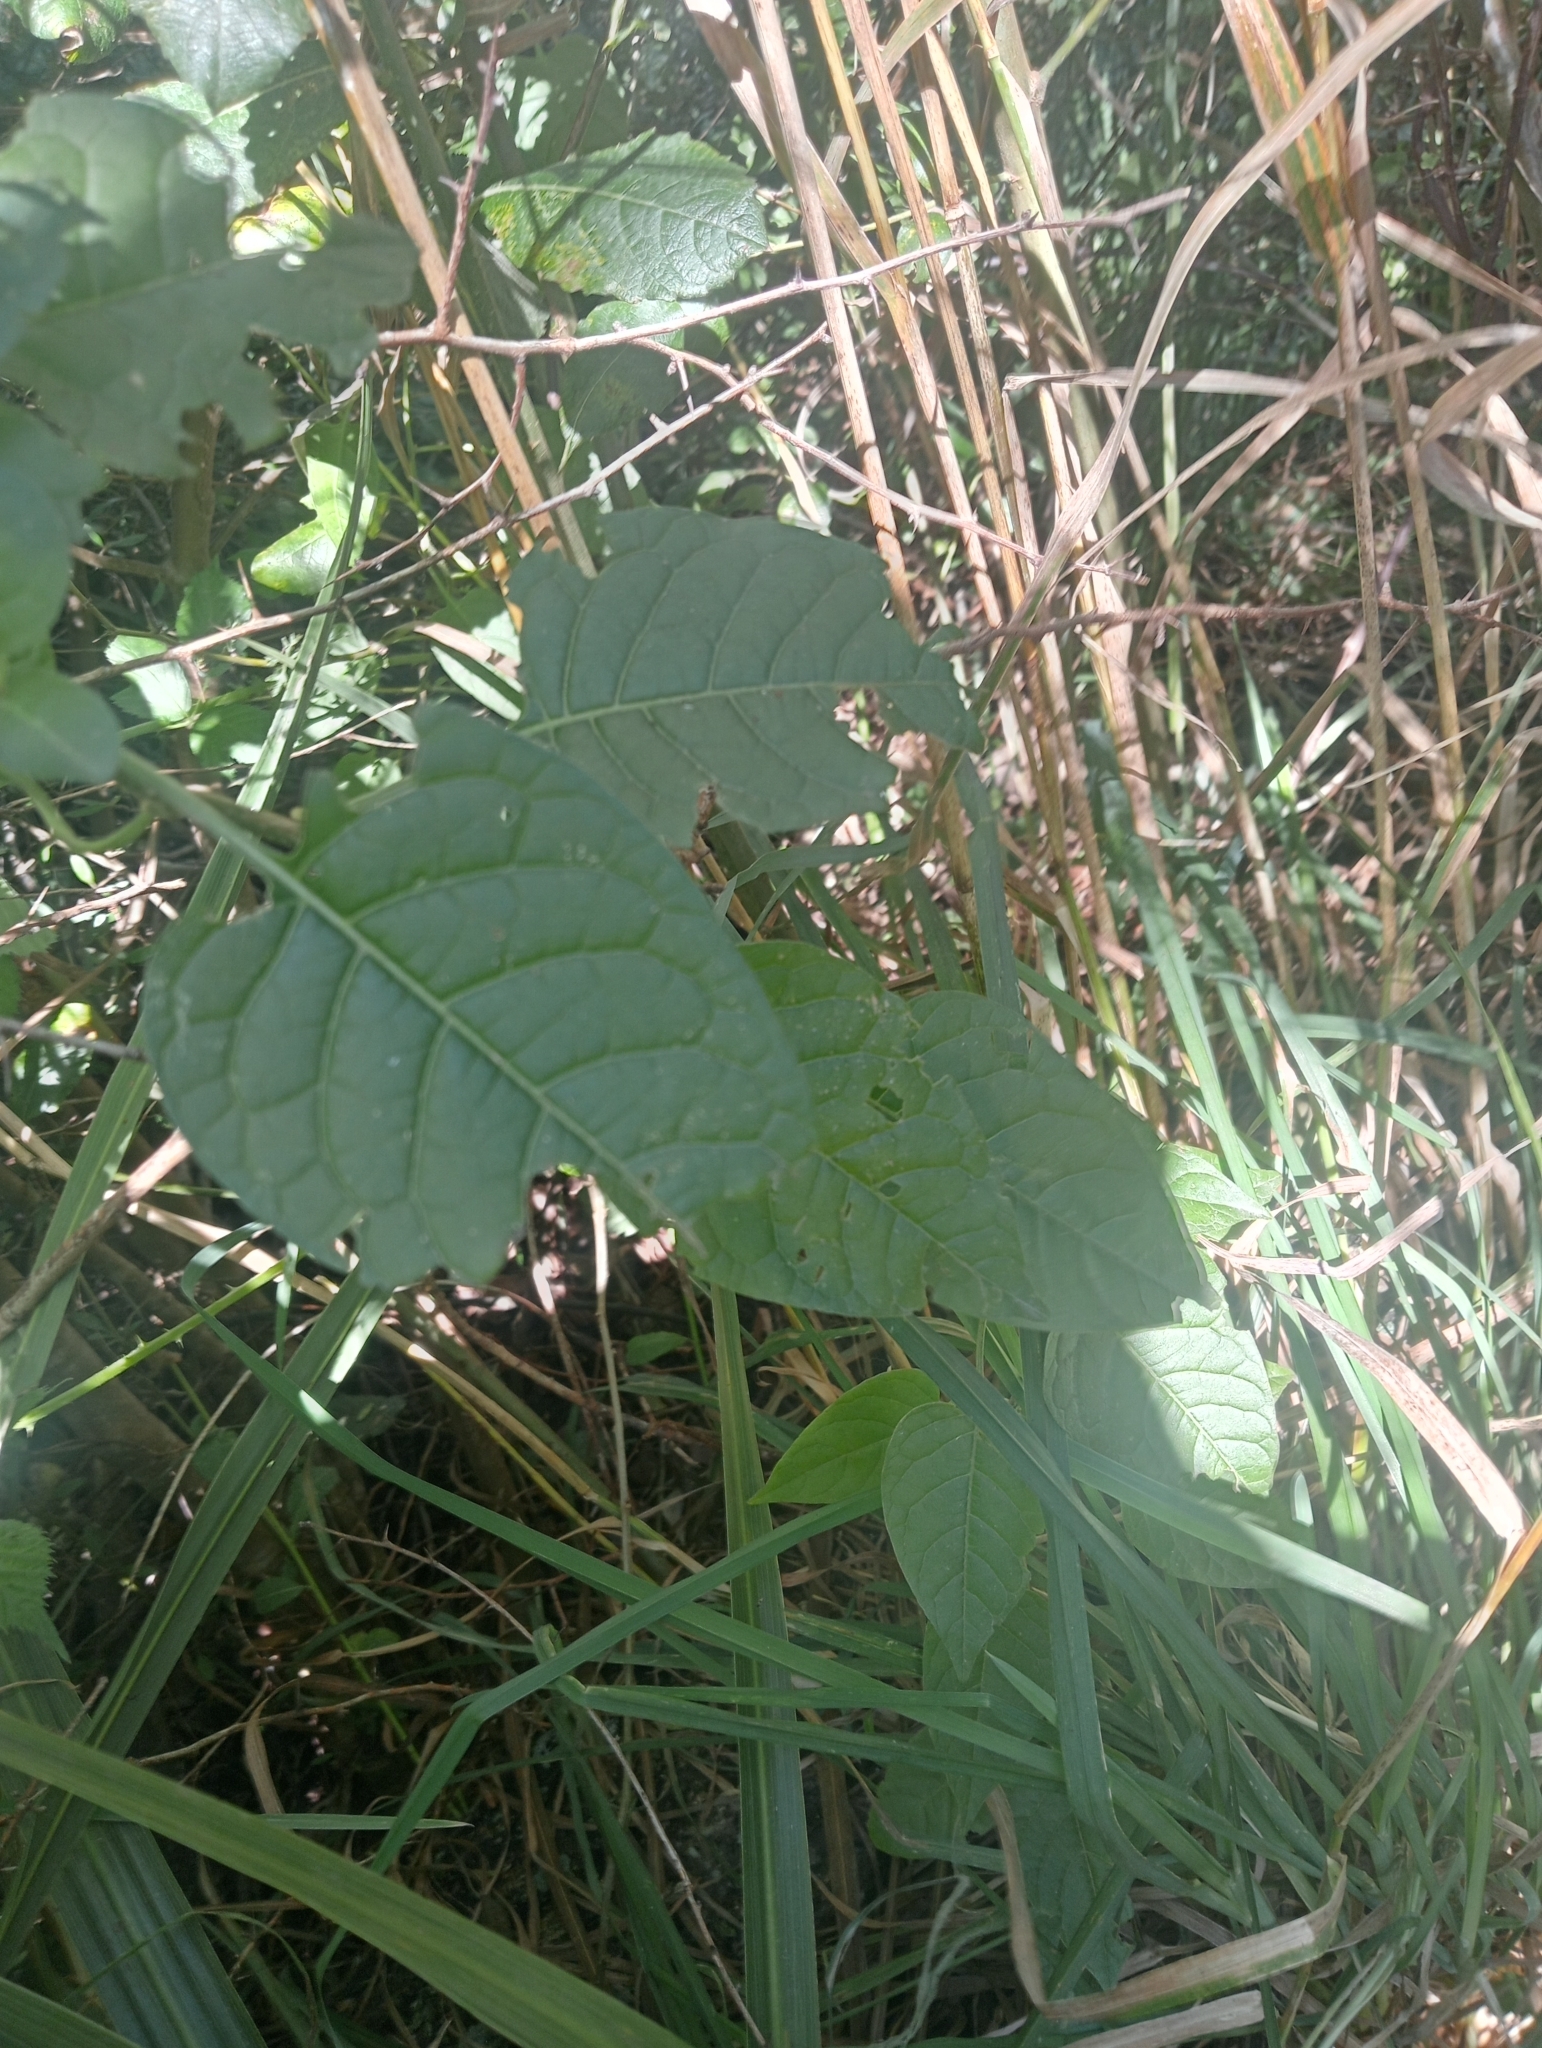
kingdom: Plantae
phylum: Tracheophyta
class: Magnoliopsida
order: Solanales
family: Solanaceae
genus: Solanum
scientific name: Solanum dulcamara
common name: Climbing nightshade
